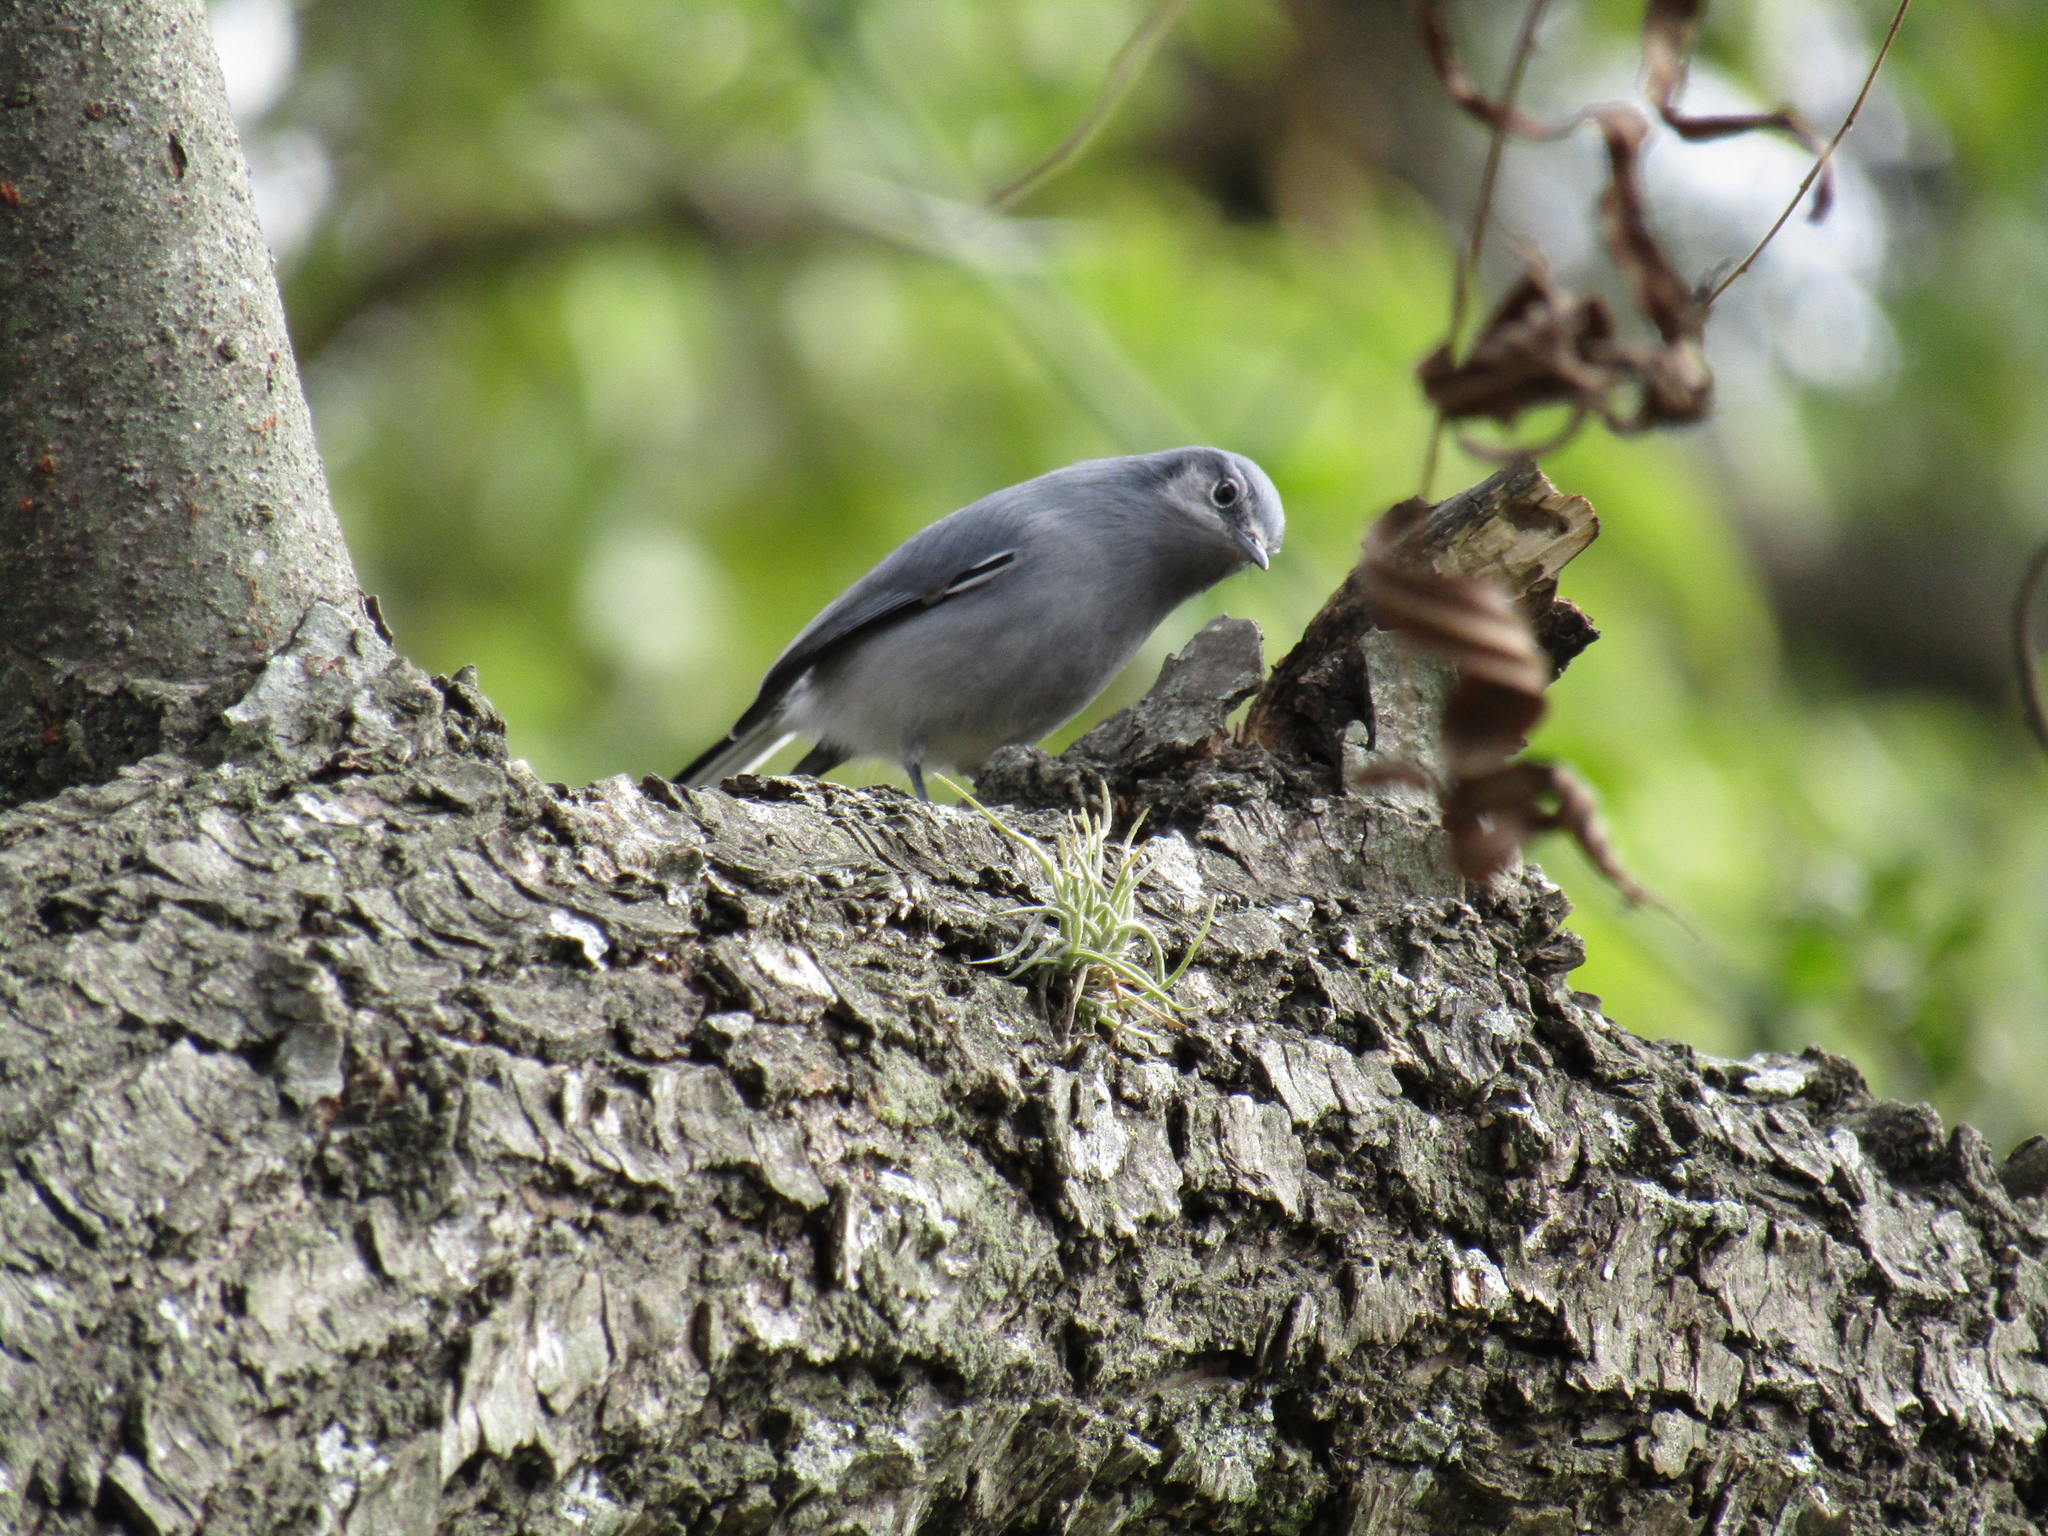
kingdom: Animalia
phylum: Chordata
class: Aves
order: Passeriformes
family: Polioptilidae
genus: Polioptila
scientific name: Polioptila dumicola
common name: Masked gnatcatcher
